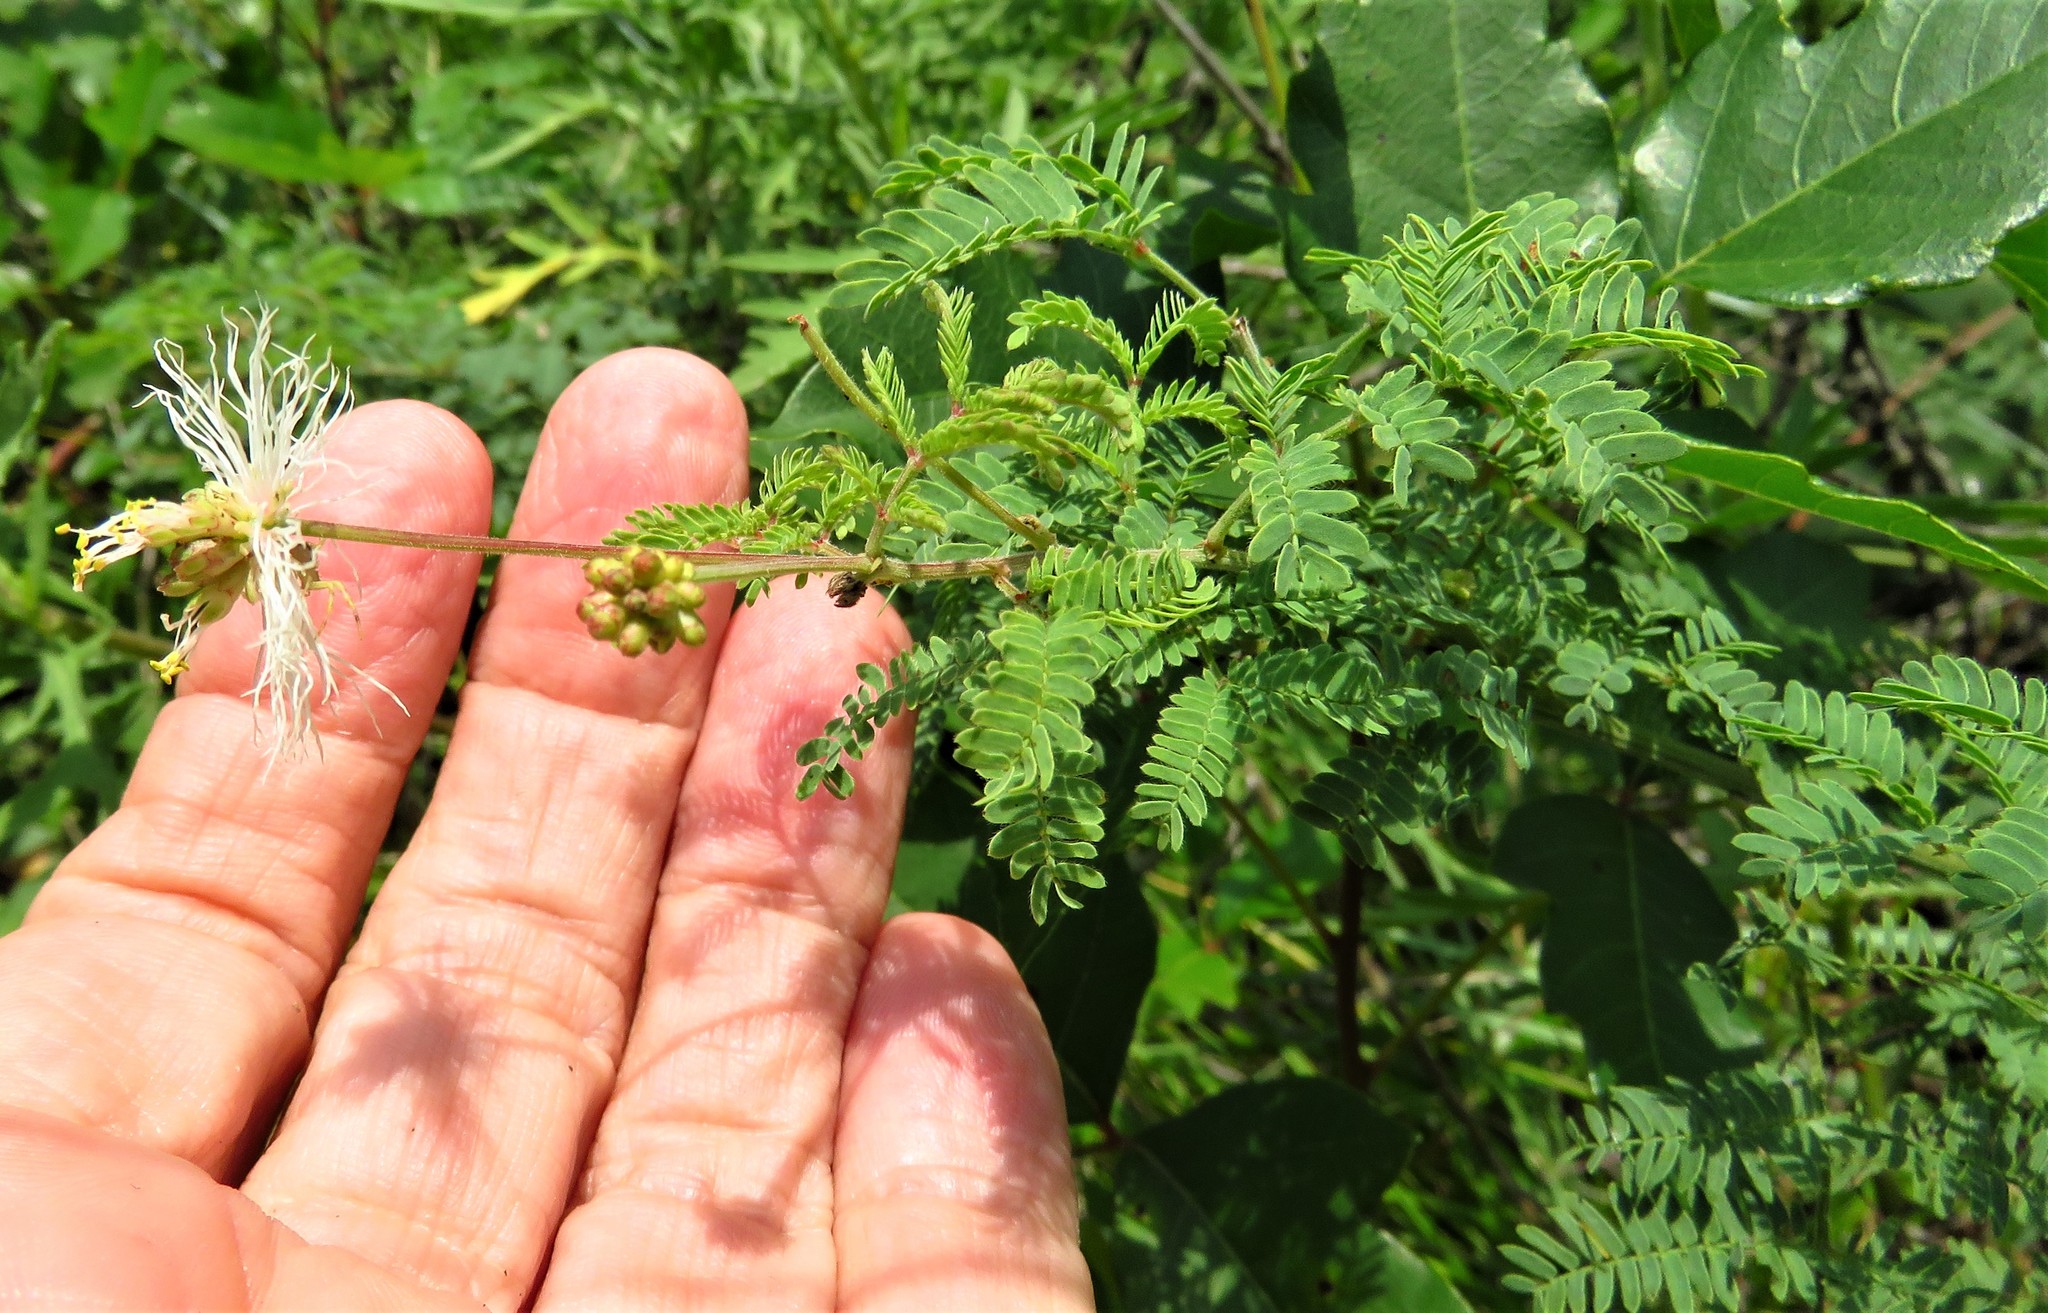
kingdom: Plantae
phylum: Tracheophyta
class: Magnoliopsida
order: Fabales
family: Fabaceae
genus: Acaciella
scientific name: Acaciella angustissima
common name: Prairie acacia
